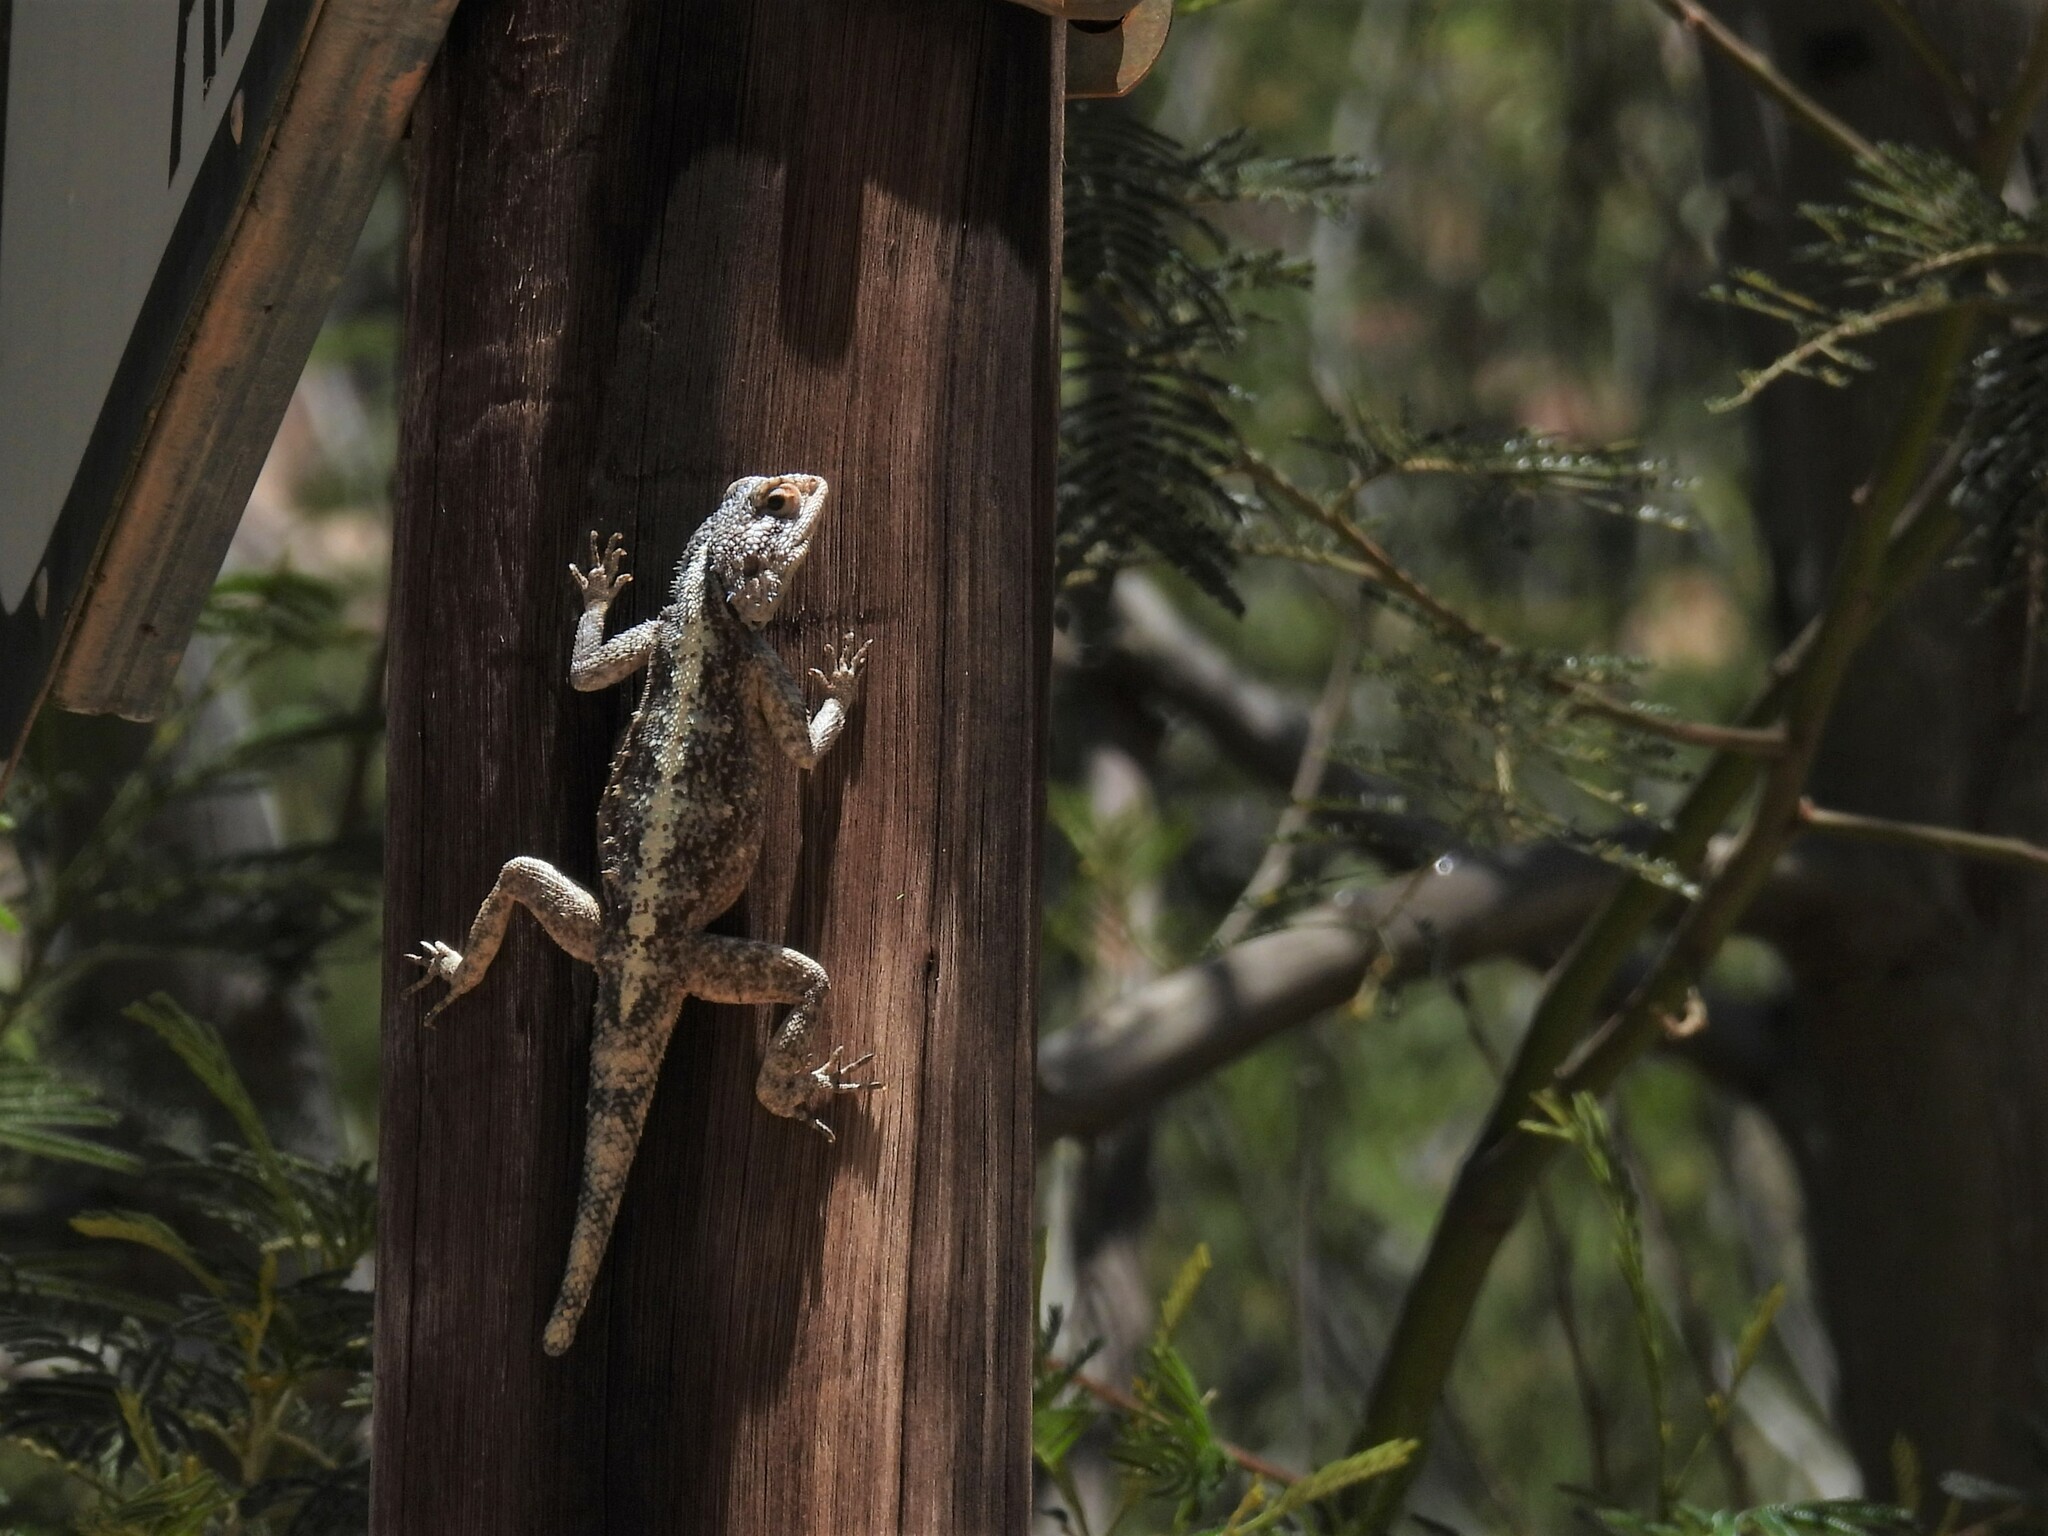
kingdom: Animalia
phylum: Chordata
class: Squamata
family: Agamidae
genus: Agama
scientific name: Agama atra
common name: Southern african rock agama
